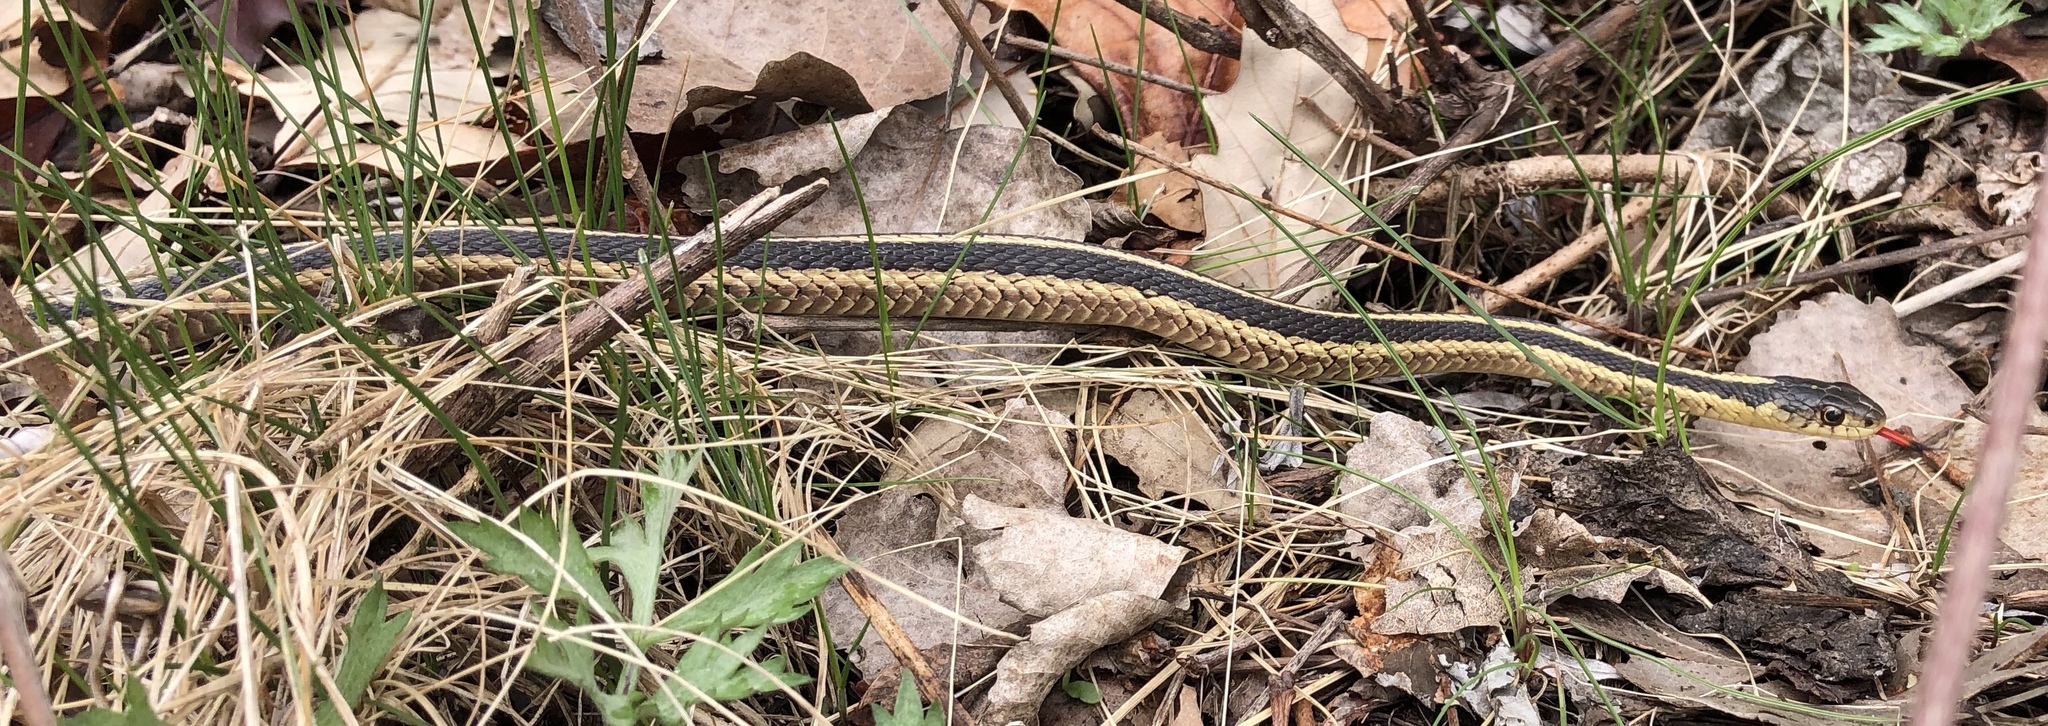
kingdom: Animalia
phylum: Chordata
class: Squamata
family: Colubridae
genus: Thamnophis
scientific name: Thamnophis sirtalis
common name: Common garter snake
